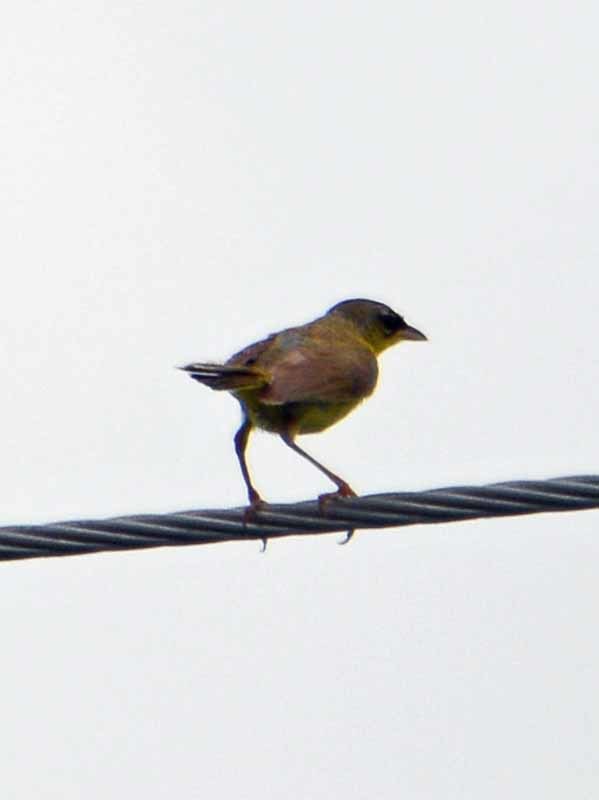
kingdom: Animalia
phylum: Chordata
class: Aves
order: Passeriformes
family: Parulidae
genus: Geothlypis
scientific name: Geothlypis poliocephala
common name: Gray-crowned yellowthroat
